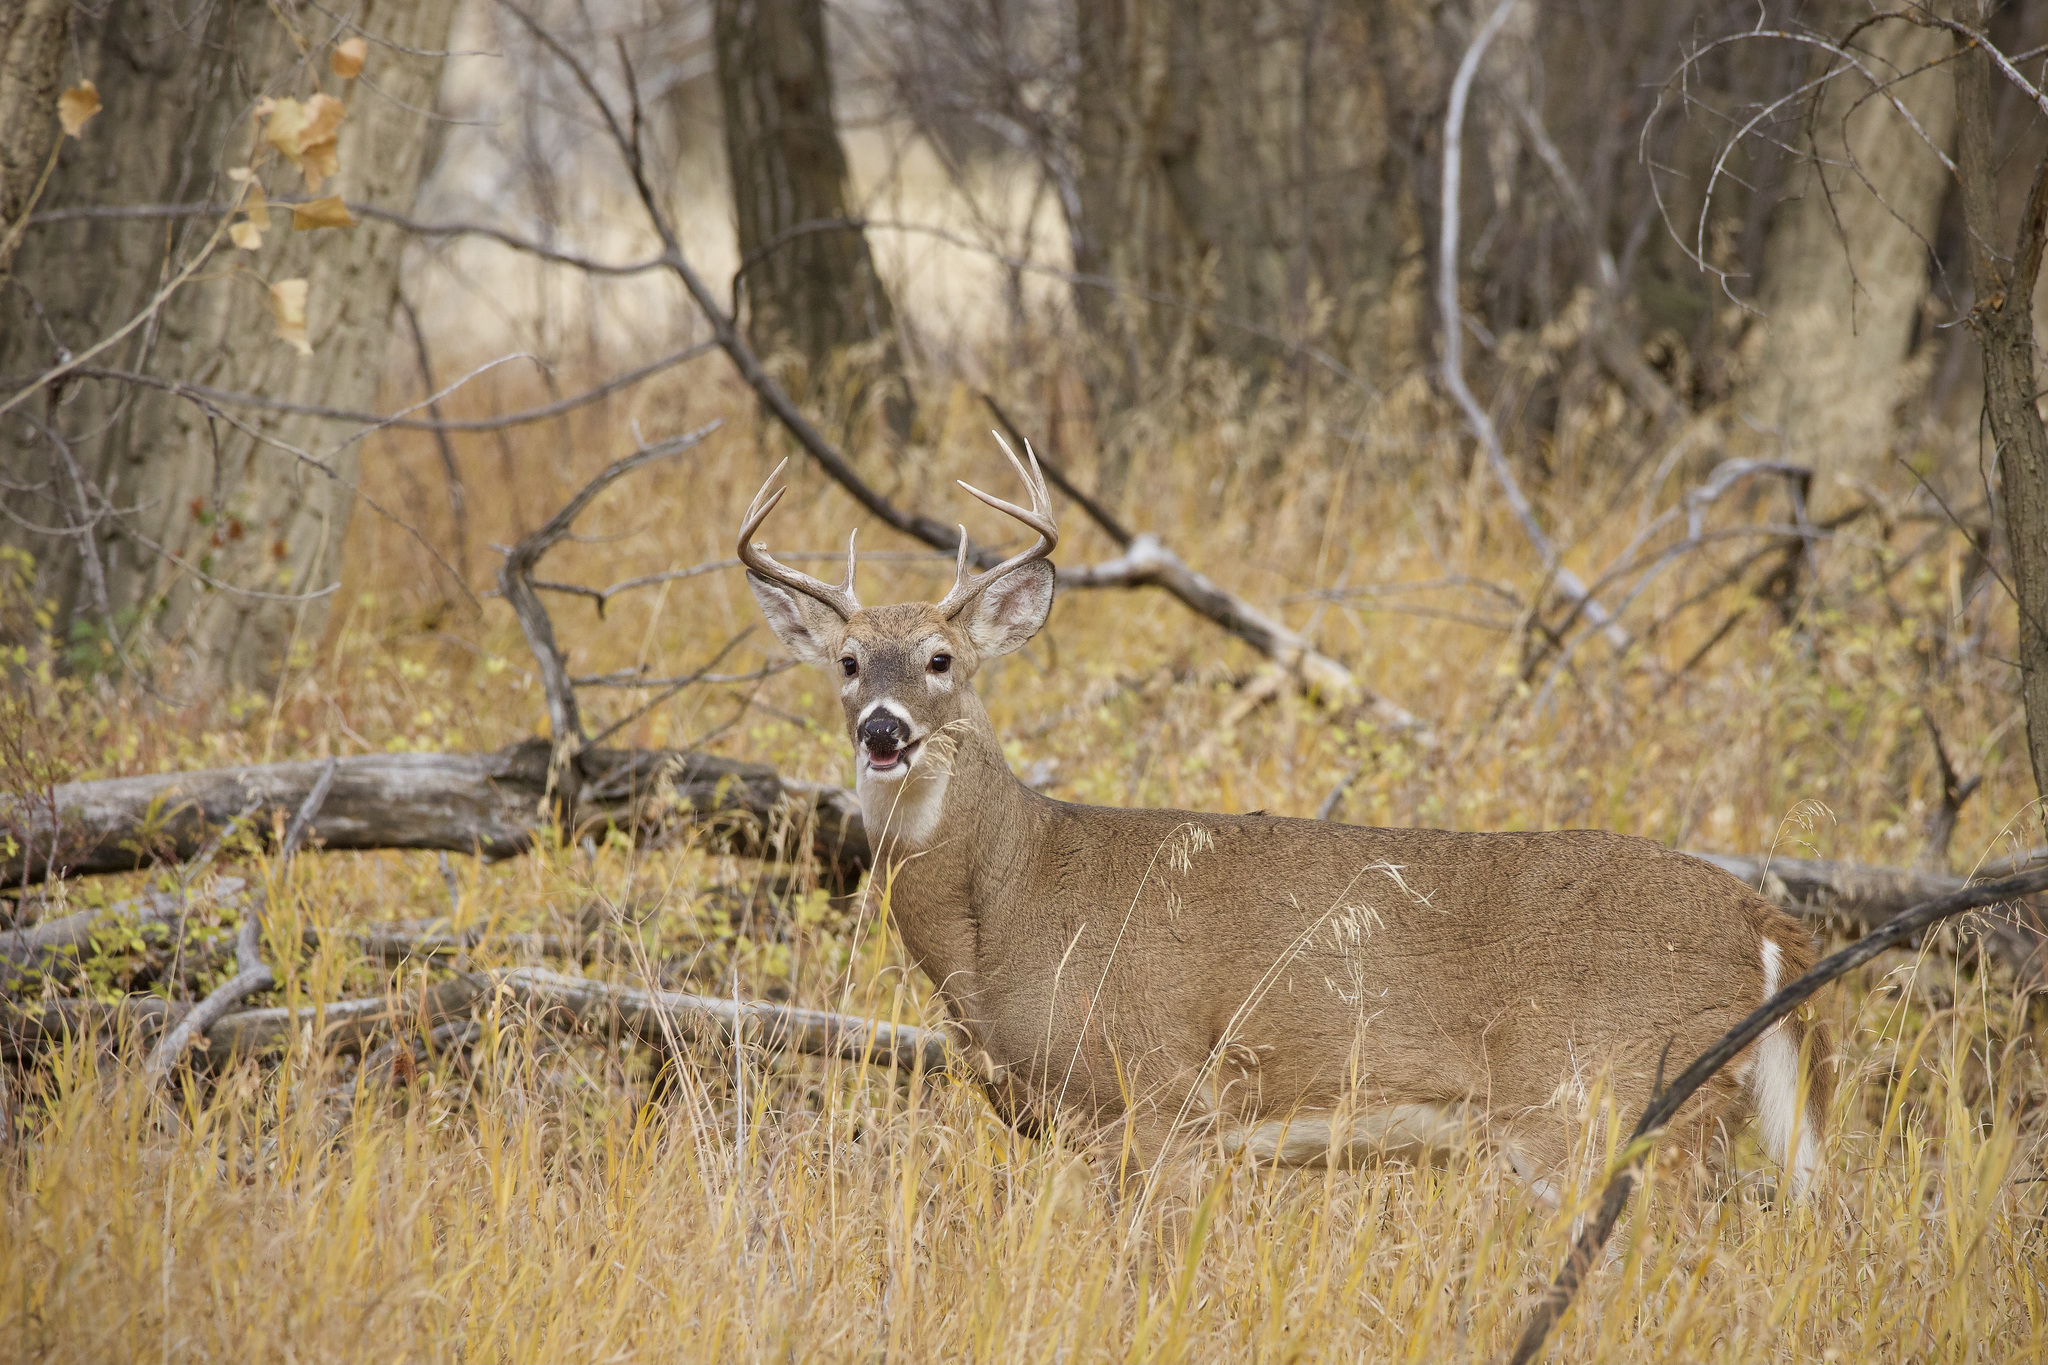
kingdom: Animalia
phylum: Chordata
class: Mammalia
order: Artiodactyla
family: Cervidae
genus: Odocoileus
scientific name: Odocoileus virginianus
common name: White-tailed deer
